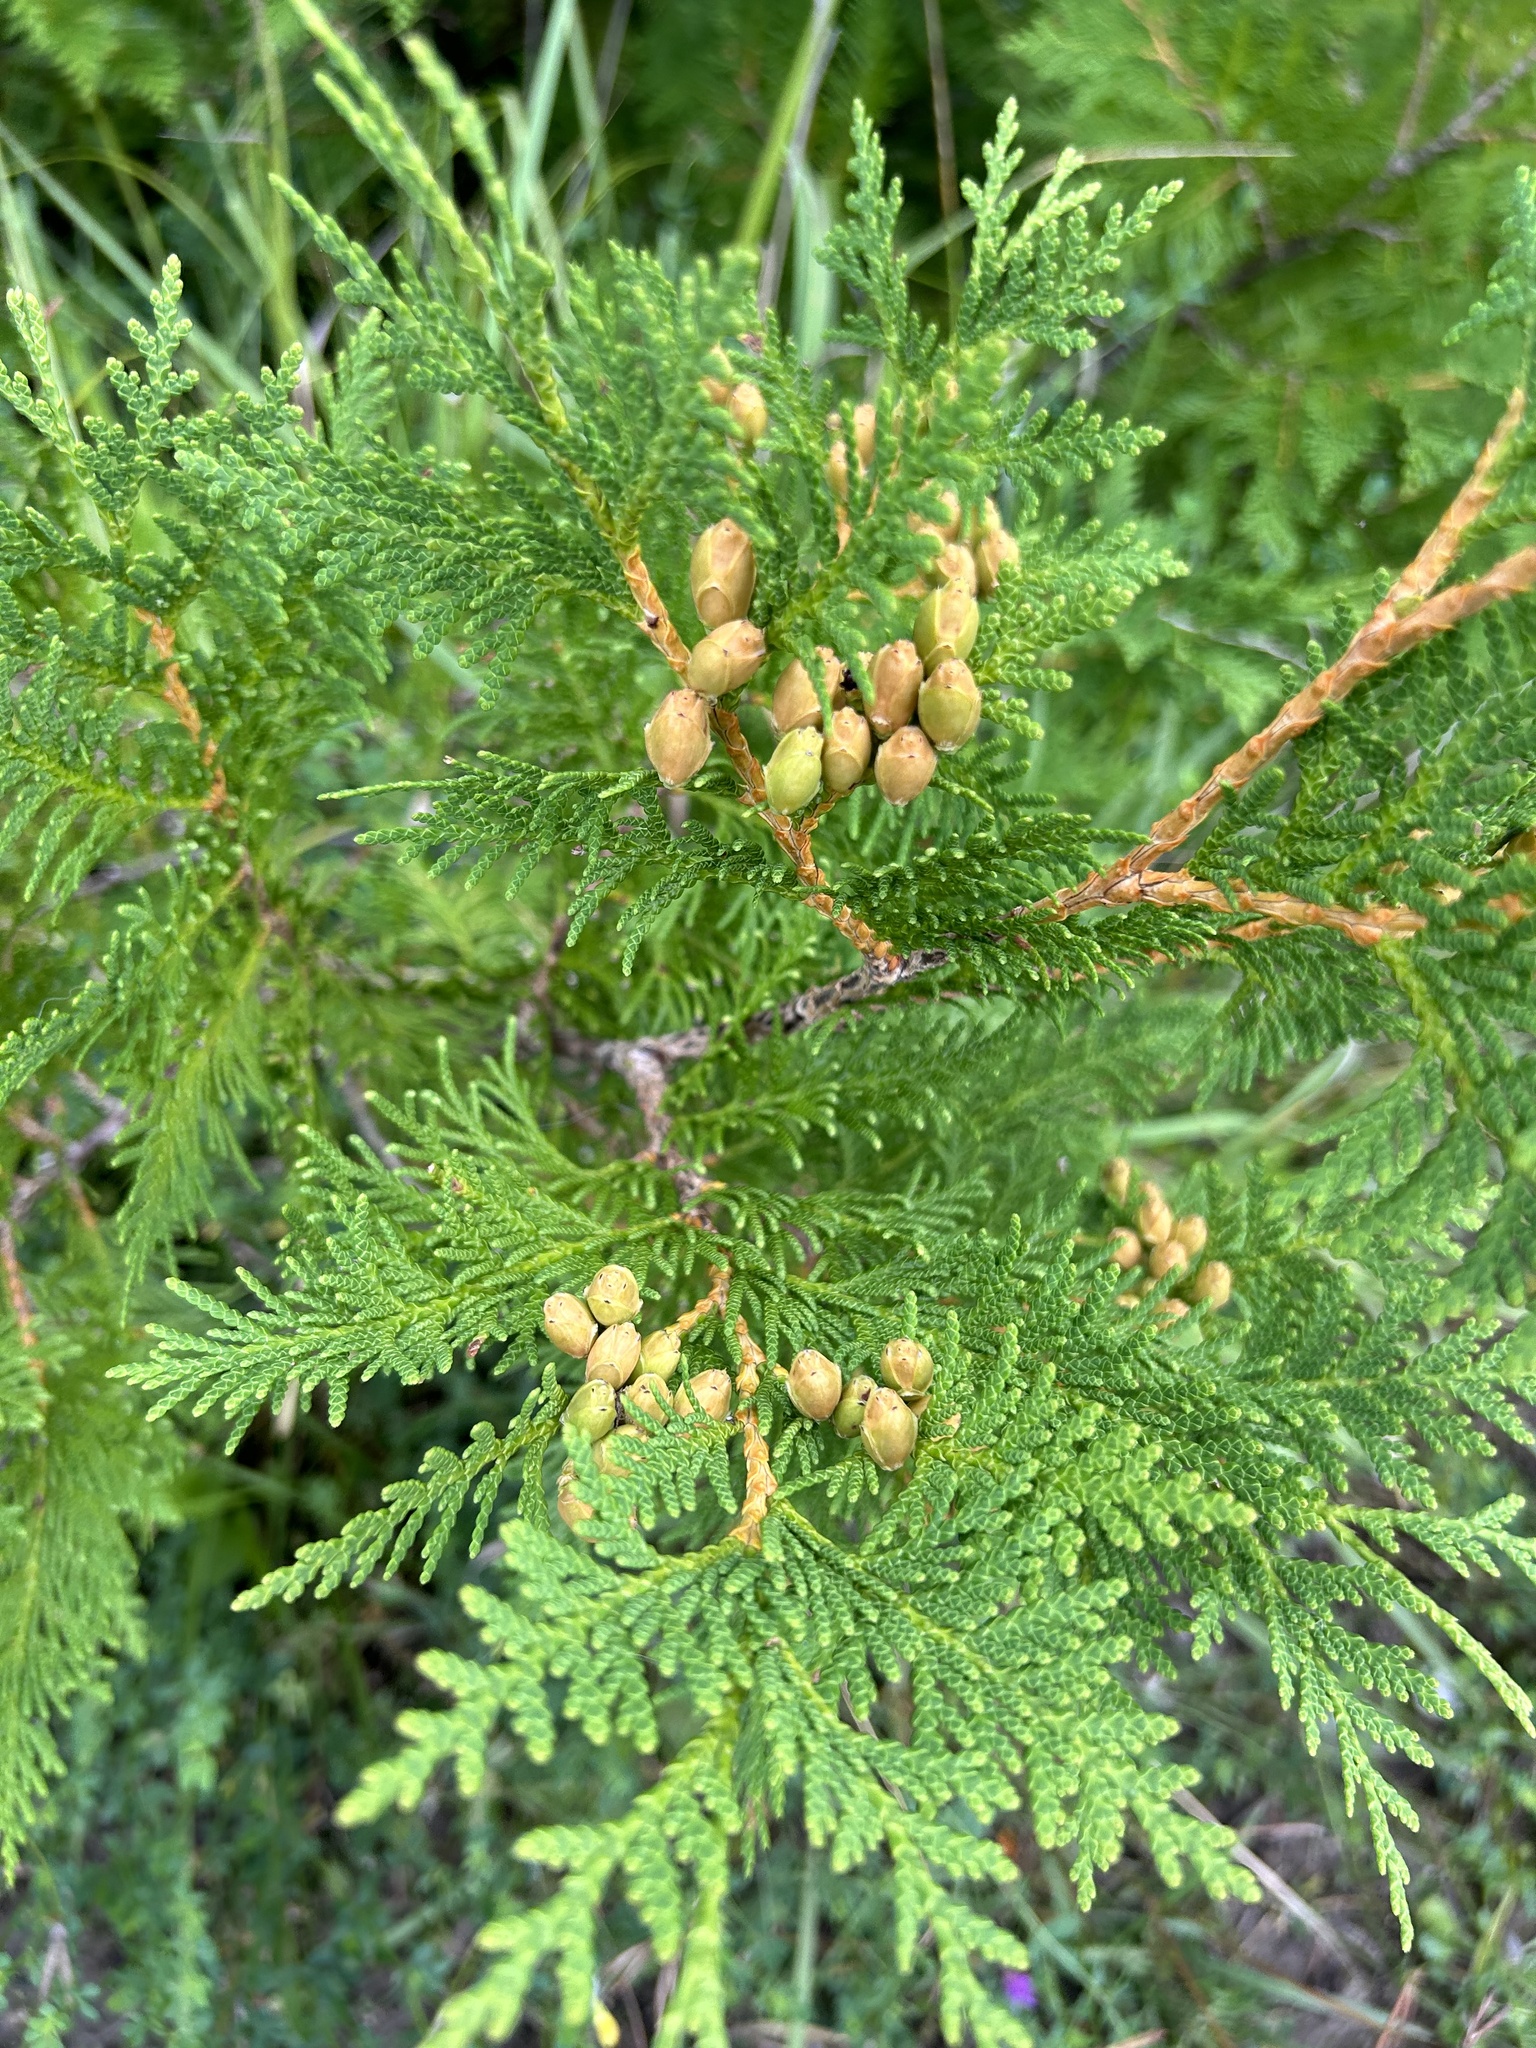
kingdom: Plantae
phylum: Tracheophyta
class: Pinopsida
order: Pinales
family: Cupressaceae
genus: Thuja
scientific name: Thuja occidentalis
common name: Northern white-cedar
